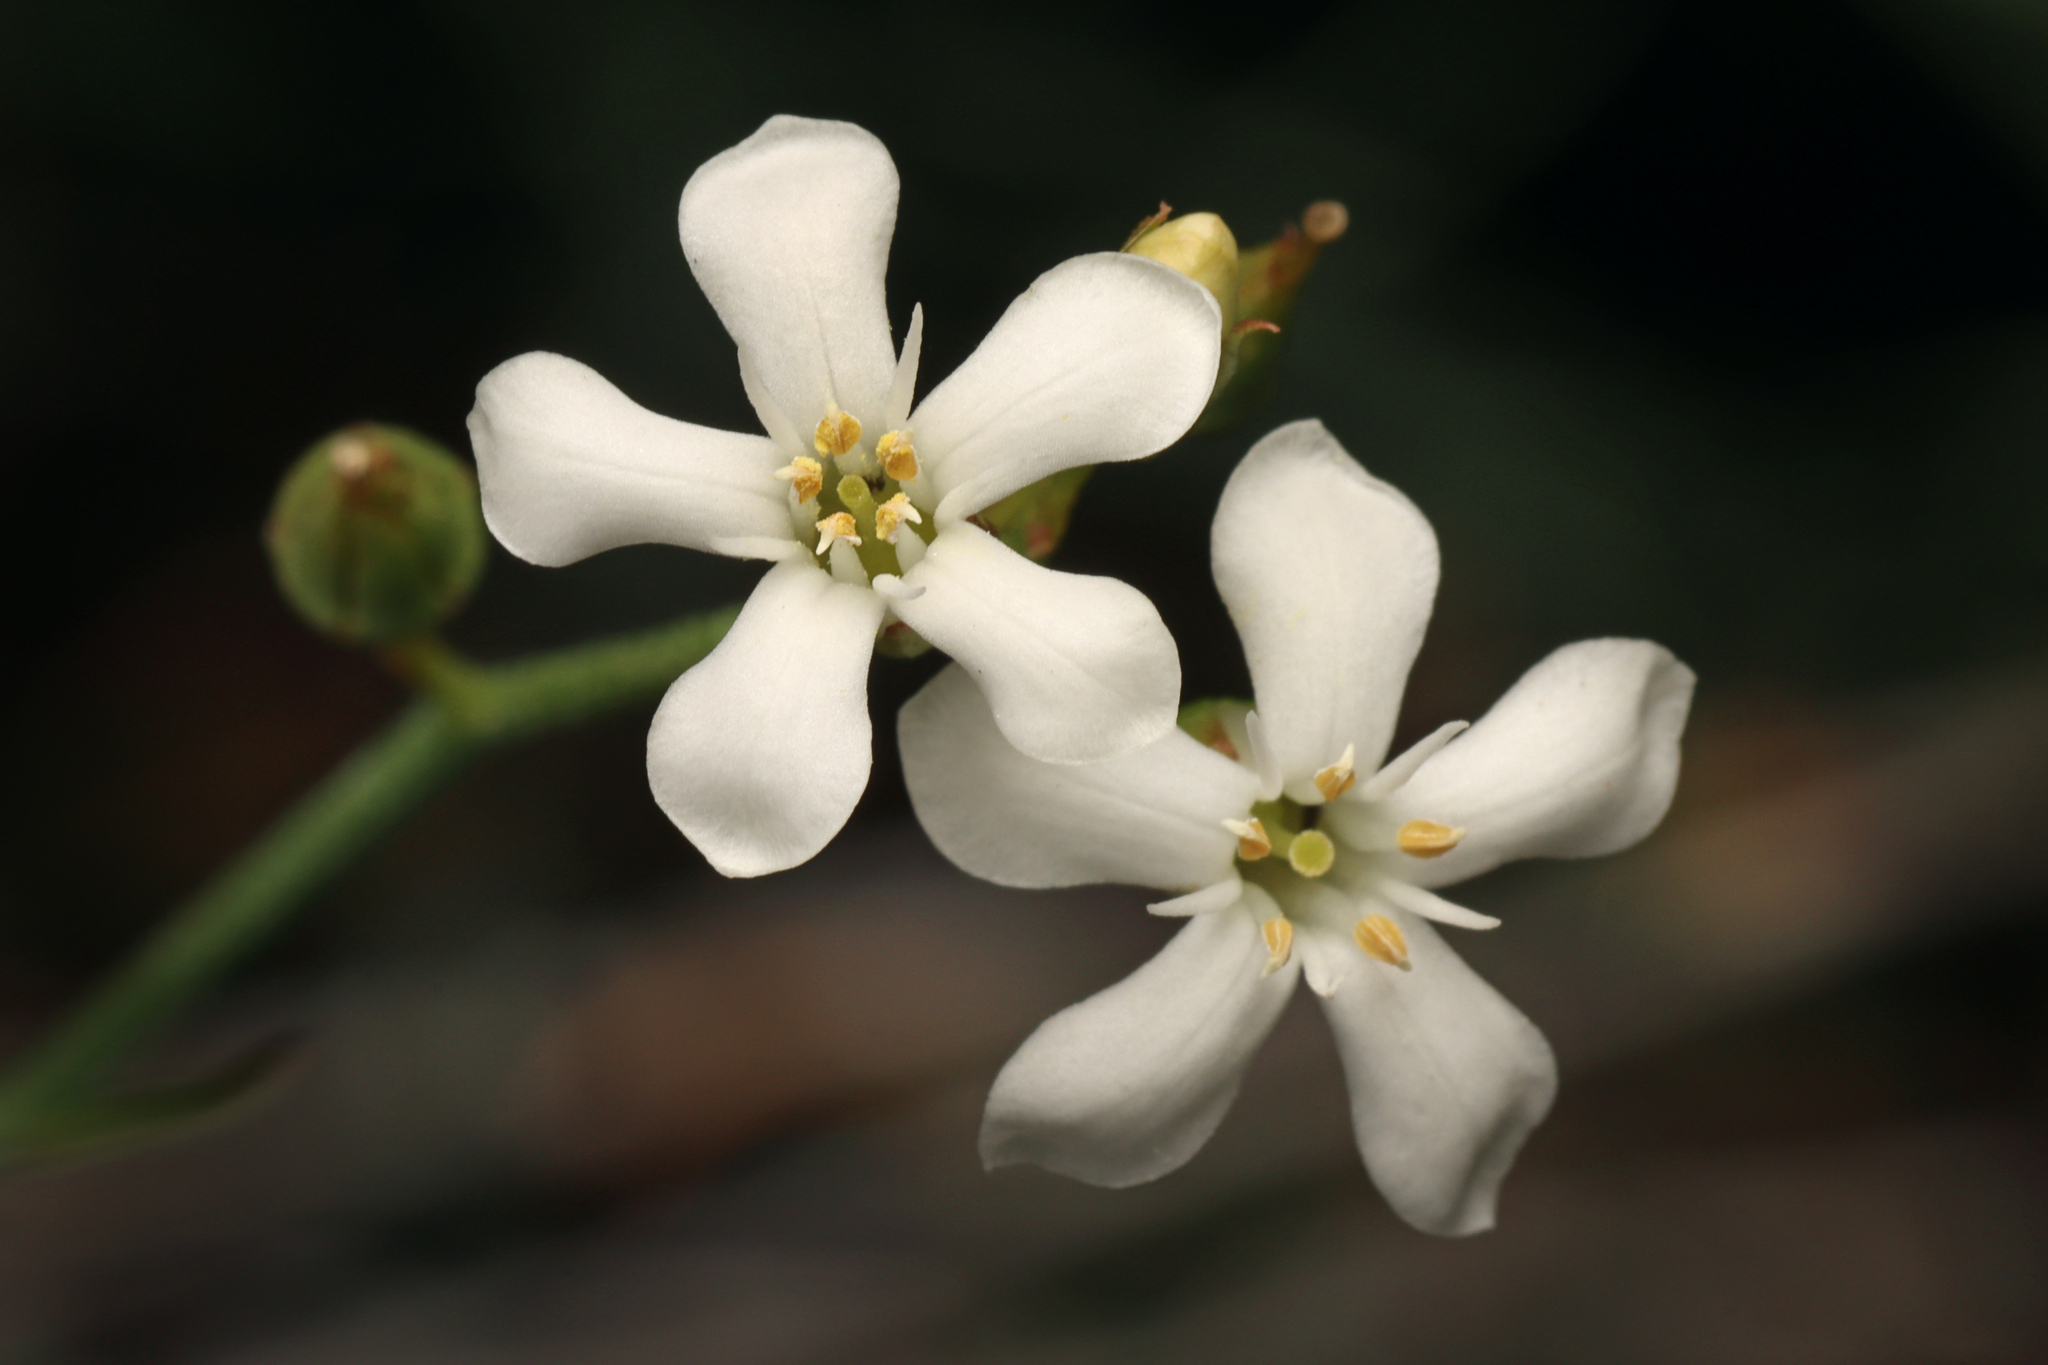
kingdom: Plantae
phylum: Tracheophyta
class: Magnoliopsida
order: Ericales
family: Primulaceae
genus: Samolus
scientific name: Samolus repens
